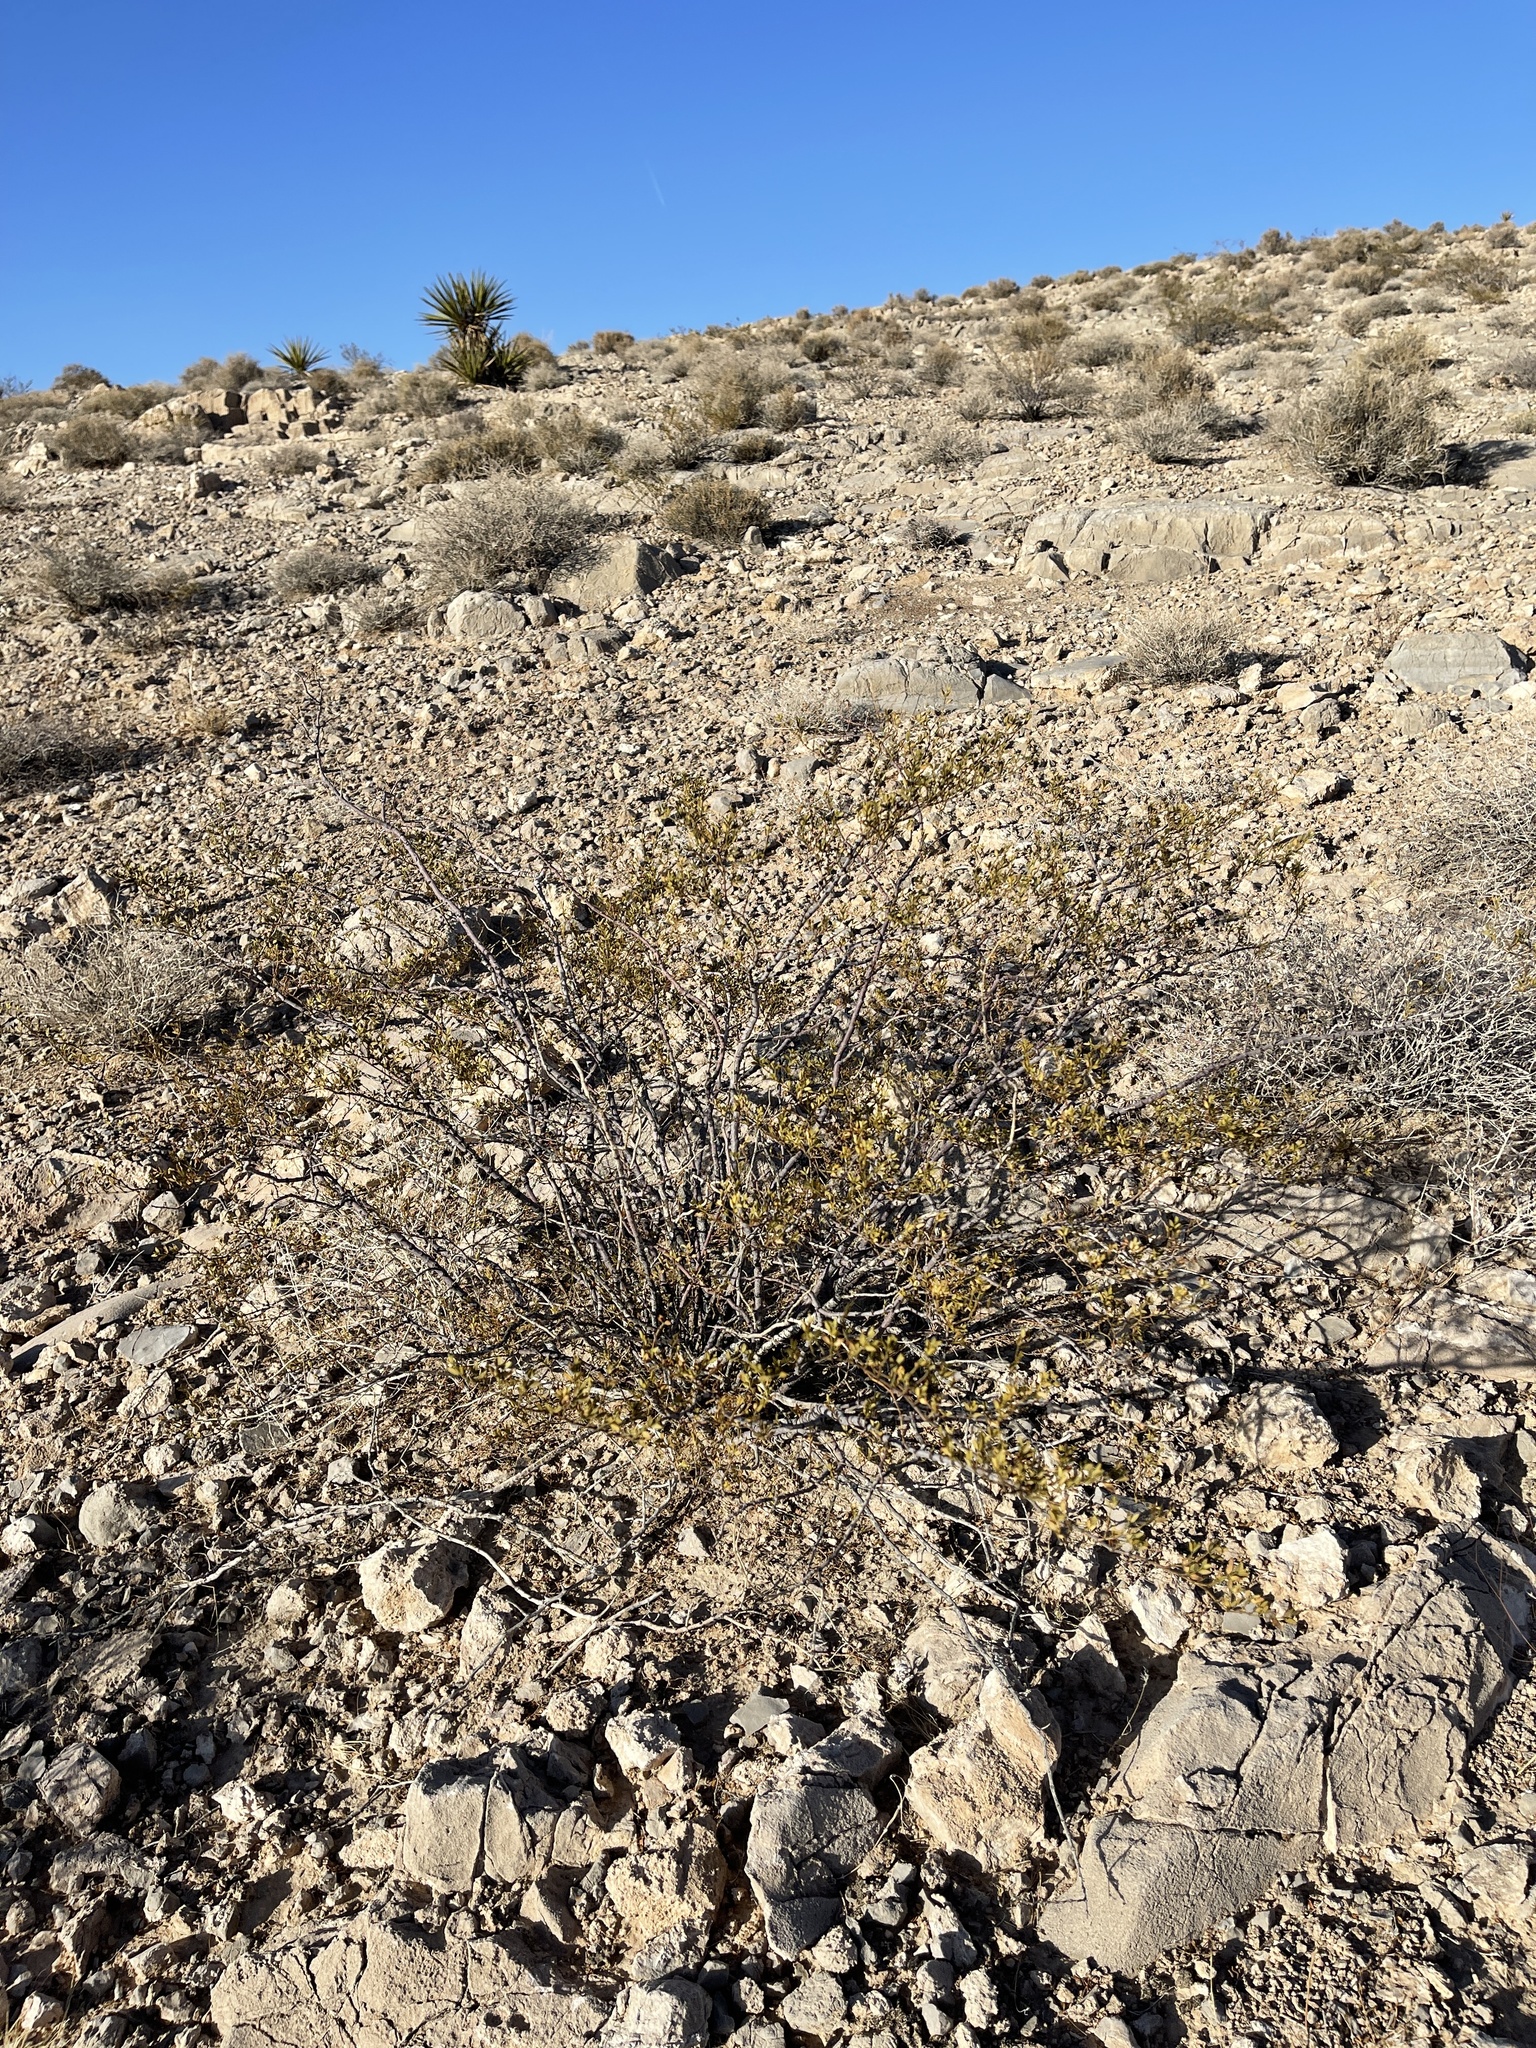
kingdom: Plantae
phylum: Tracheophyta
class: Magnoliopsida
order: Zygophyllales
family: Zygophyllaceae
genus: Larrea
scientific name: Larrea tridentata
